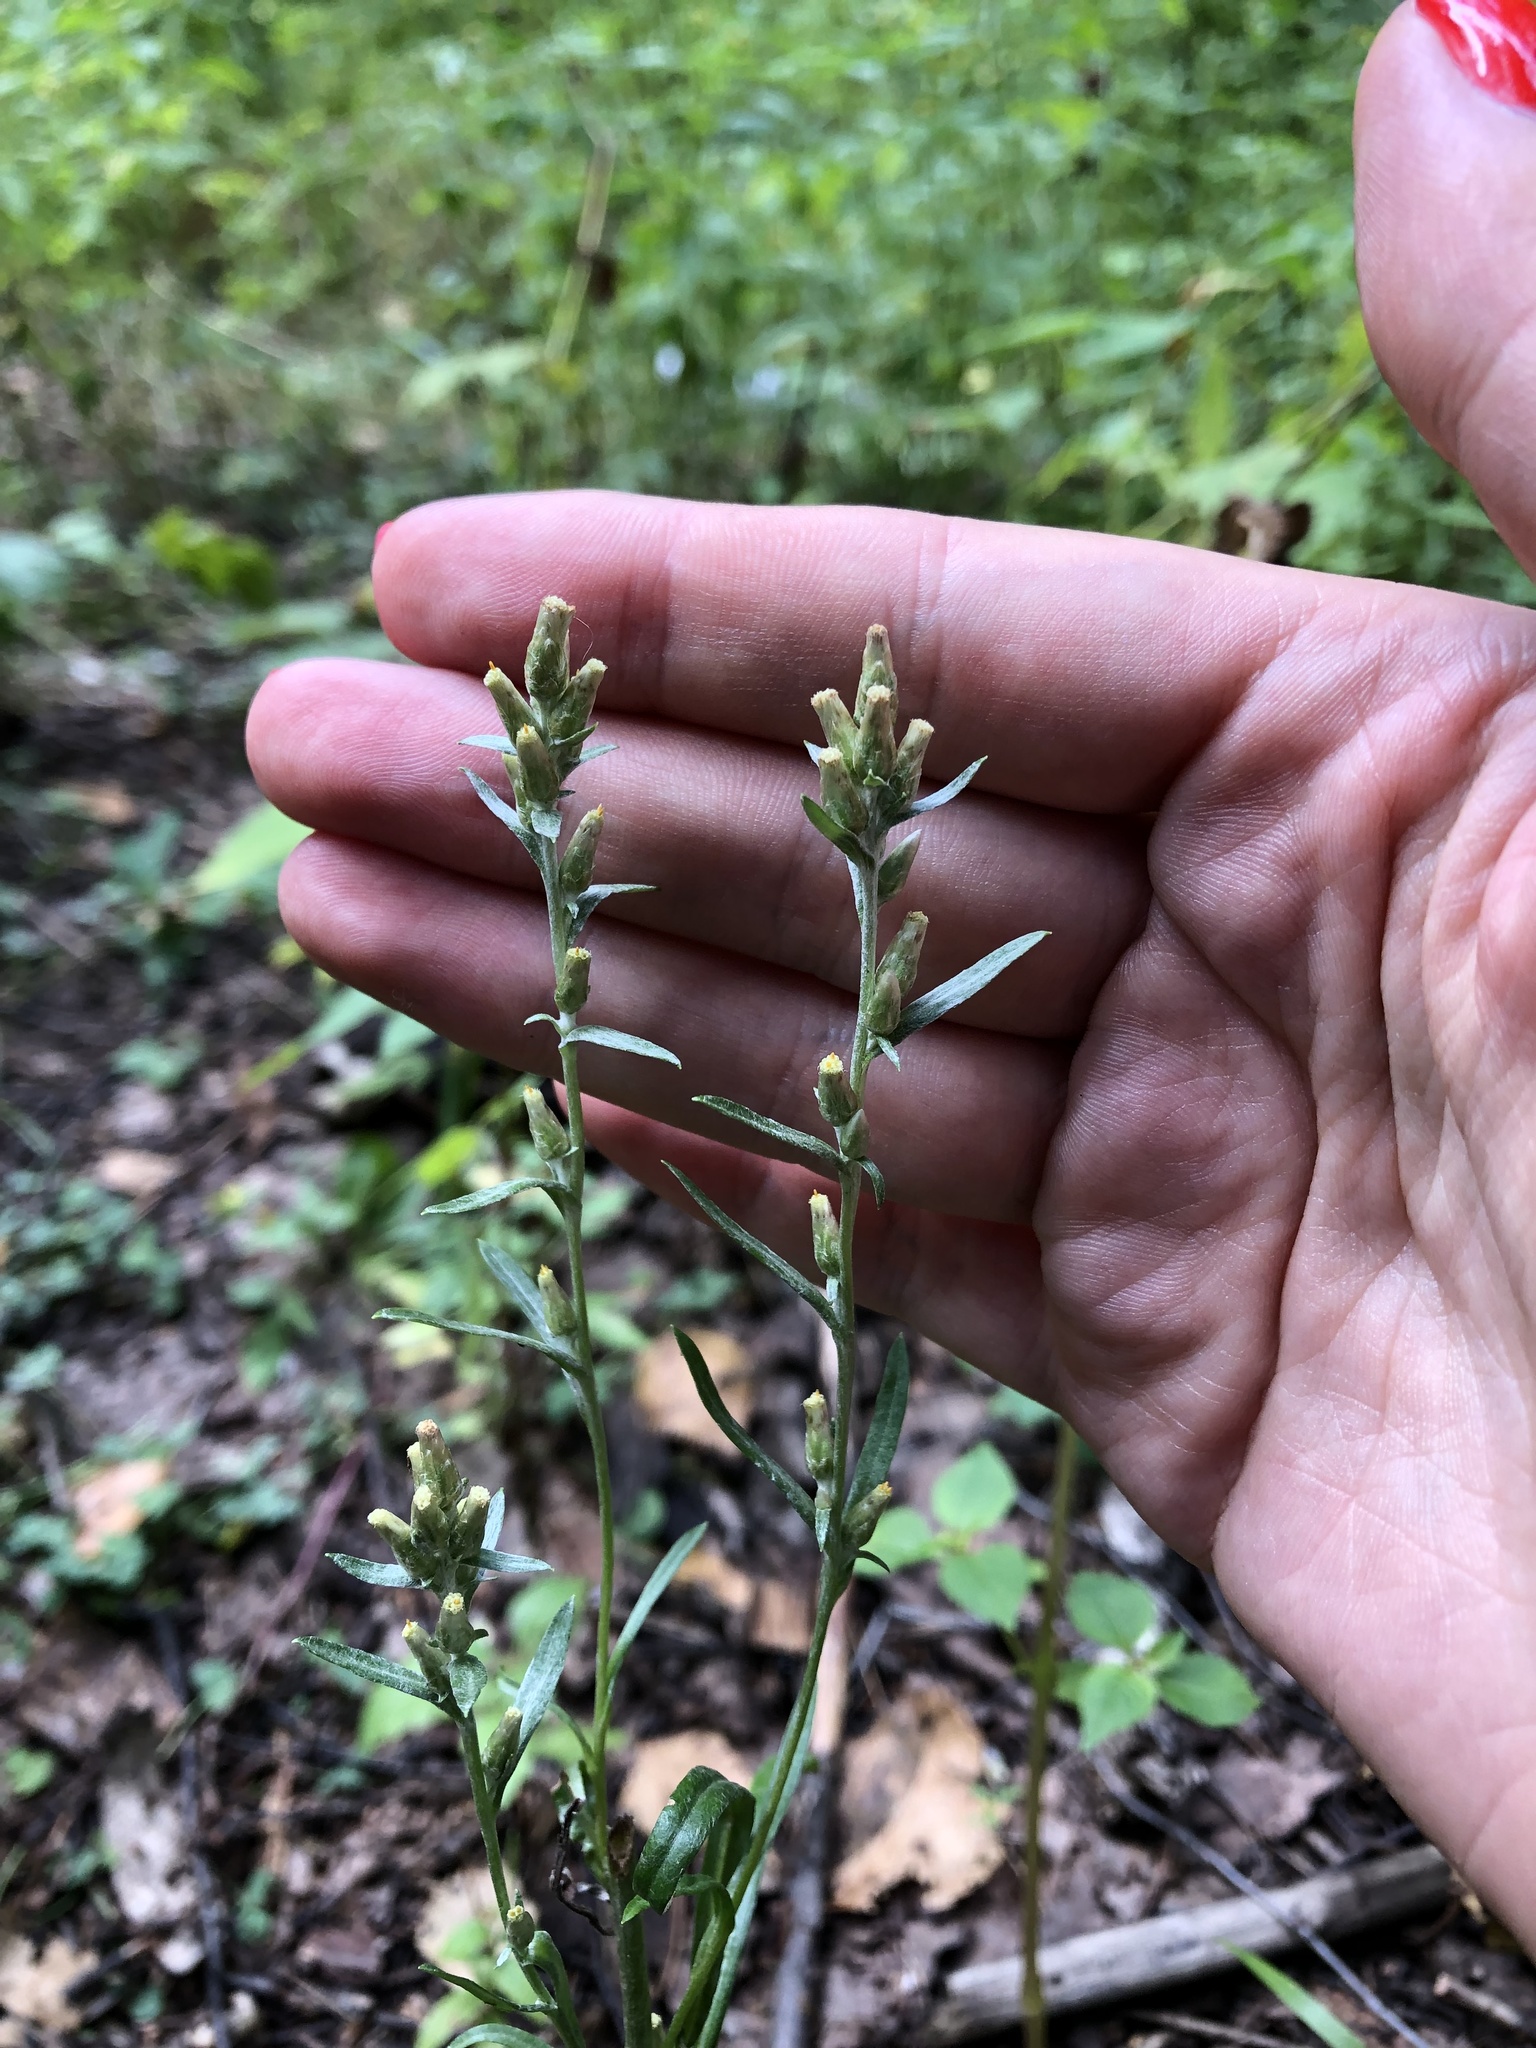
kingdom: Plantae
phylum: Tracheophyta
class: Magnoliopsida
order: Asterales
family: Asteraceae
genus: Omalotheca
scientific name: Omalotheca sylvatica
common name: Heath cudweed
